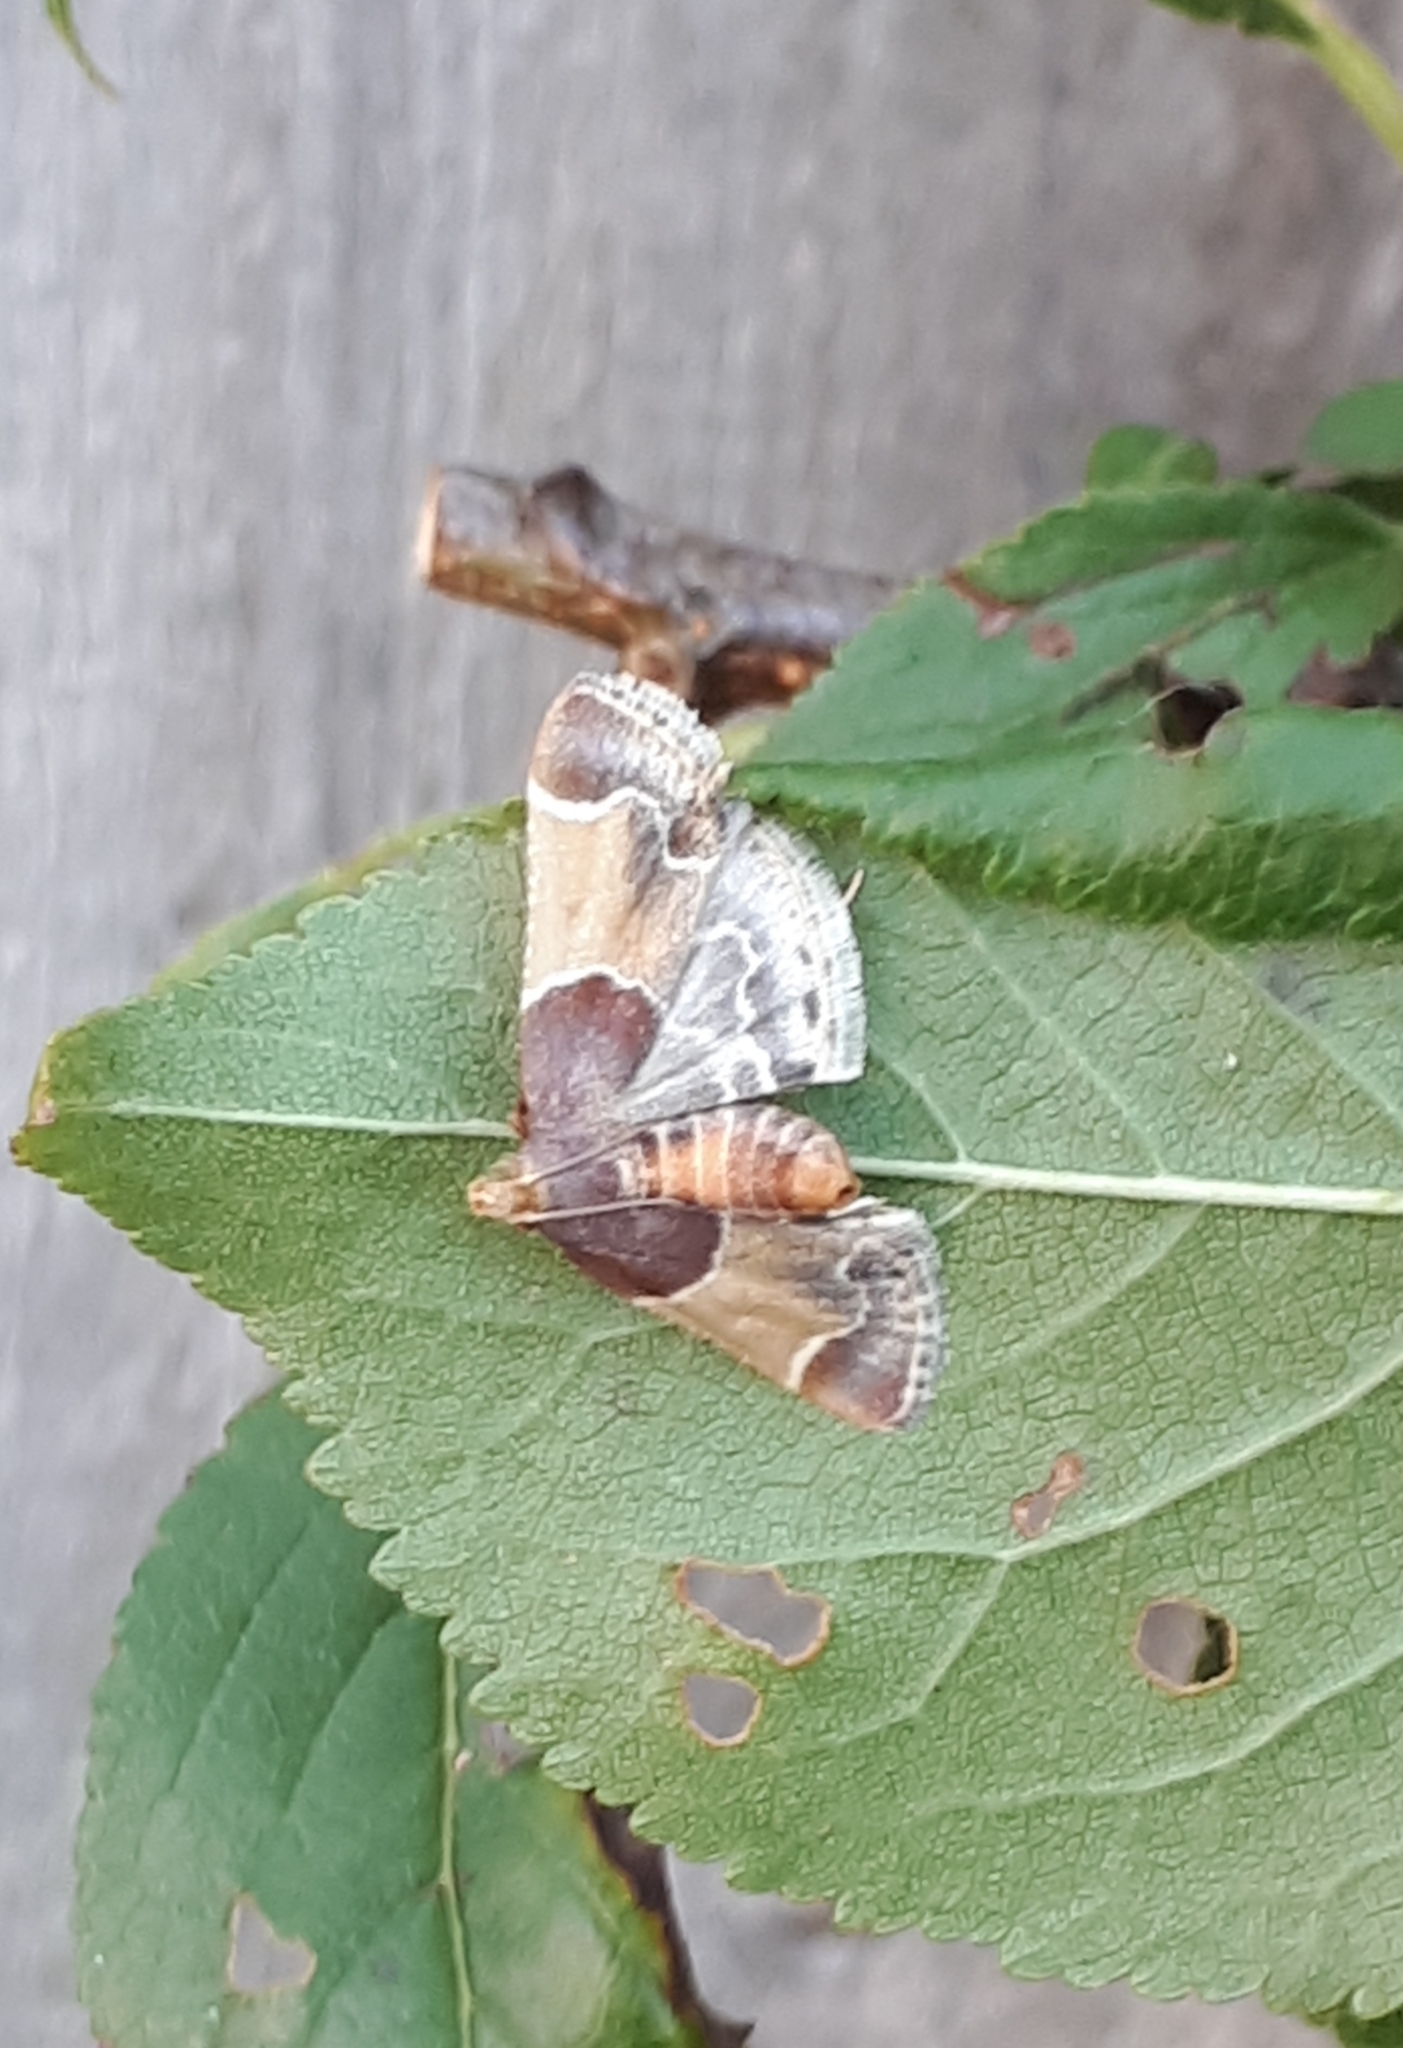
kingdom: Animalia
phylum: Arthropoda
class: Insecta
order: Lepidoptera
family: Pyralidae
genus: Pyralis
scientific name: Pyralis farinalis
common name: Meal moth
